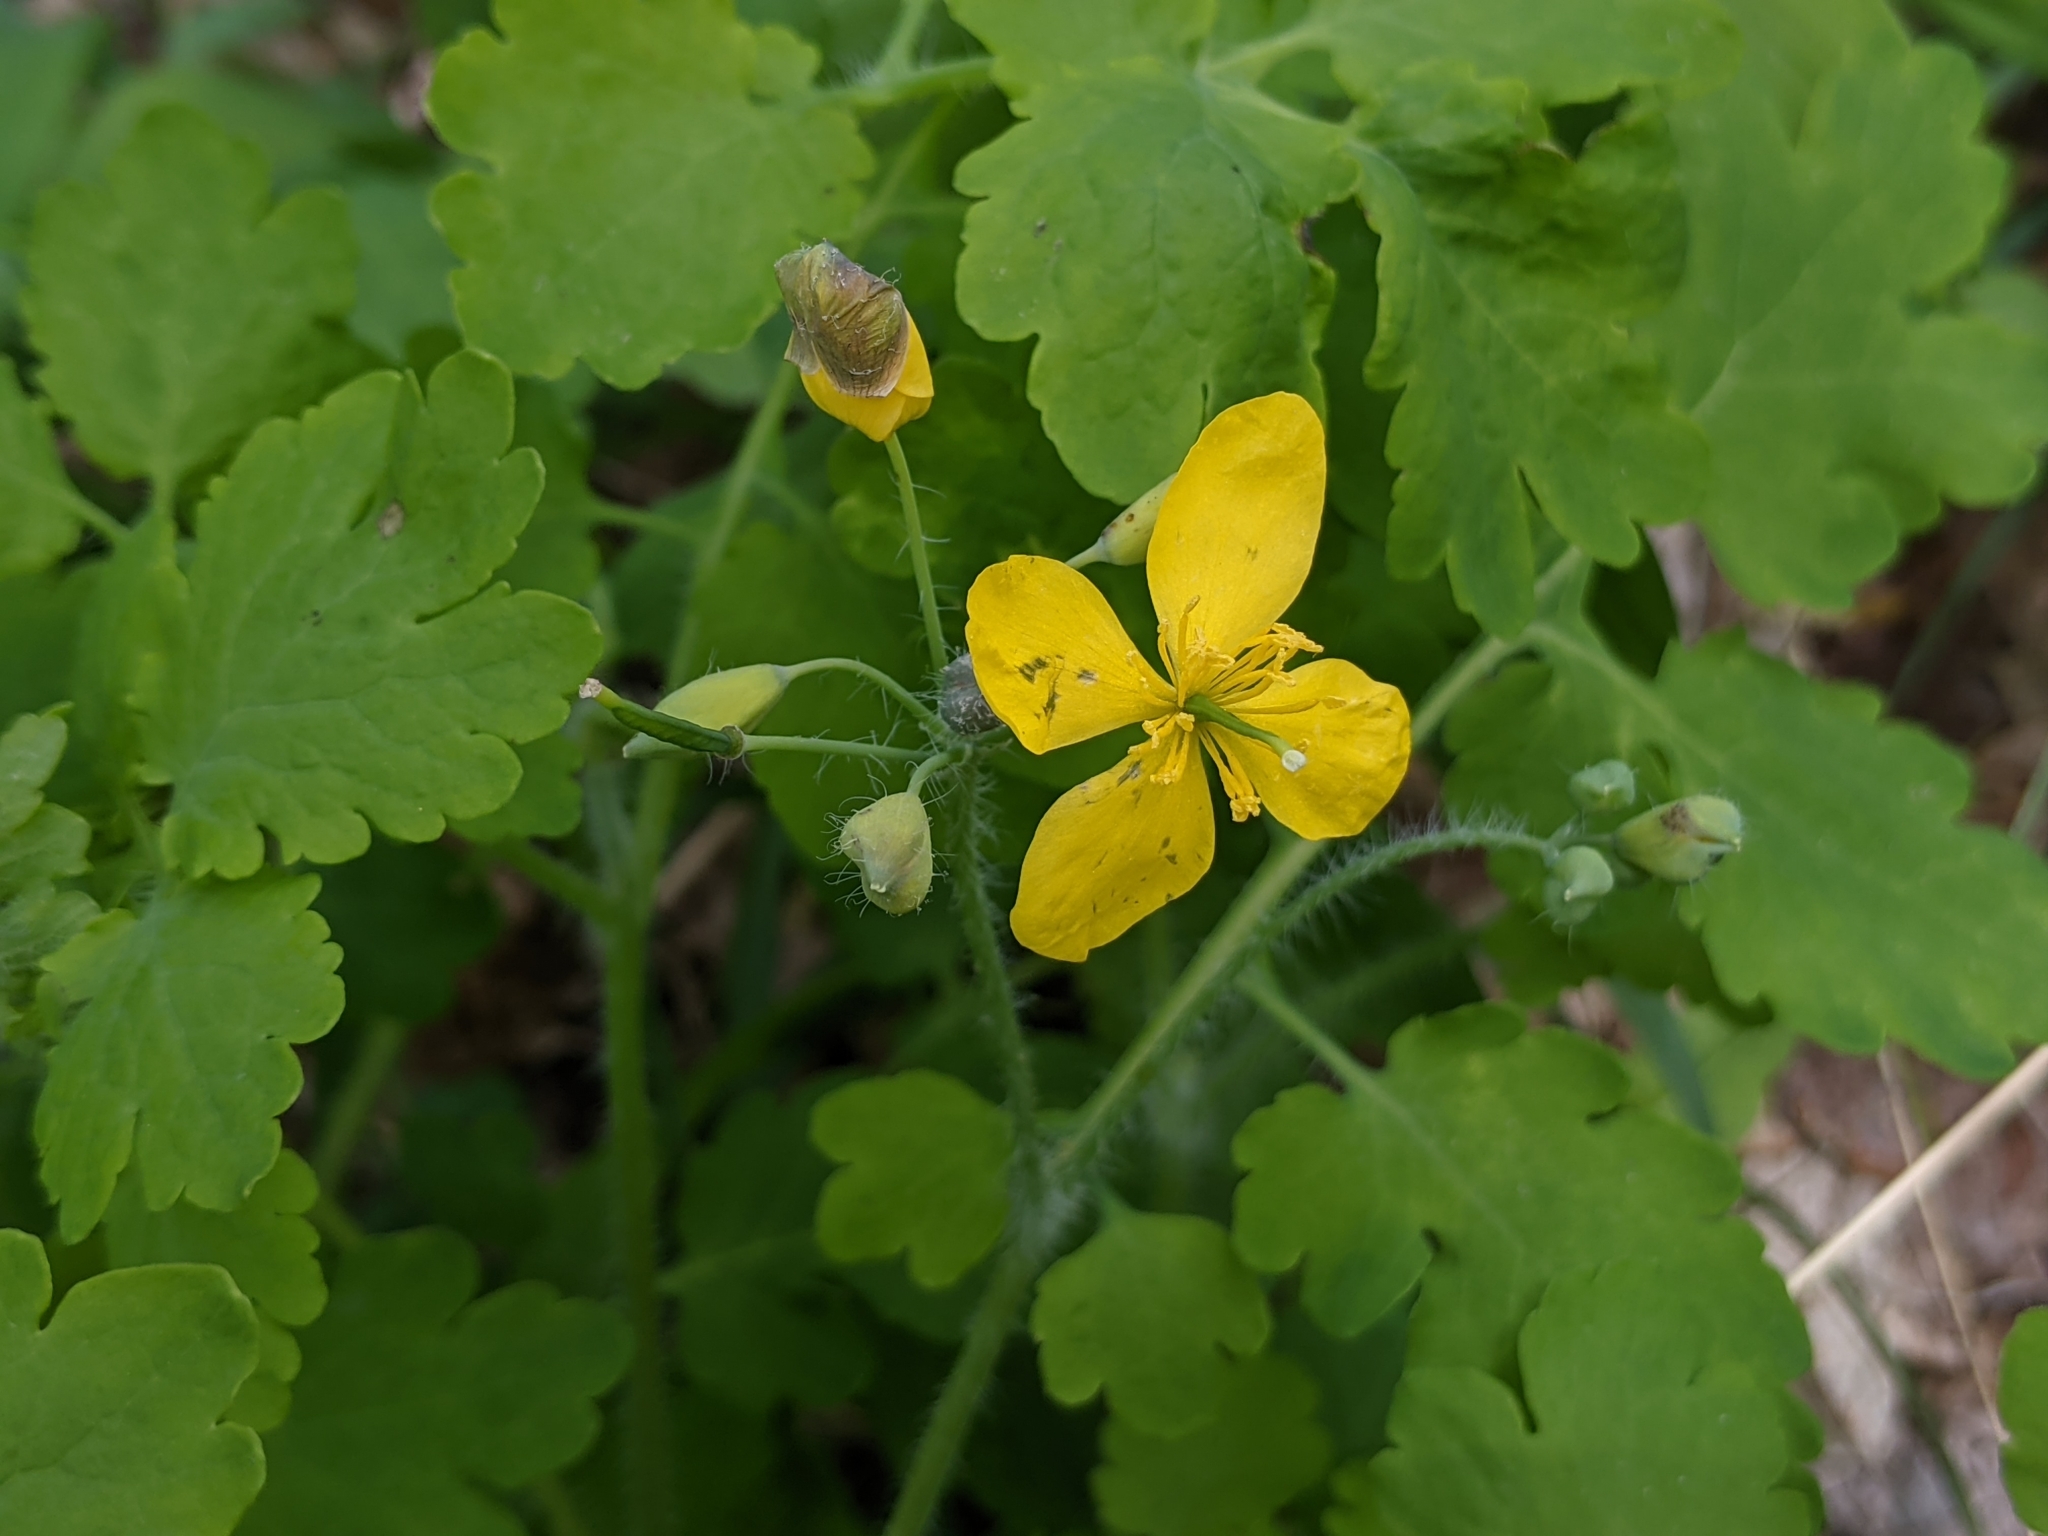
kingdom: Plantae
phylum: Tracheophyta
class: Magnoliopsida
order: Ranunculales
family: Papaveraceae
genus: Chelidonium
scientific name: Chelidonium majus
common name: Greater celandine
